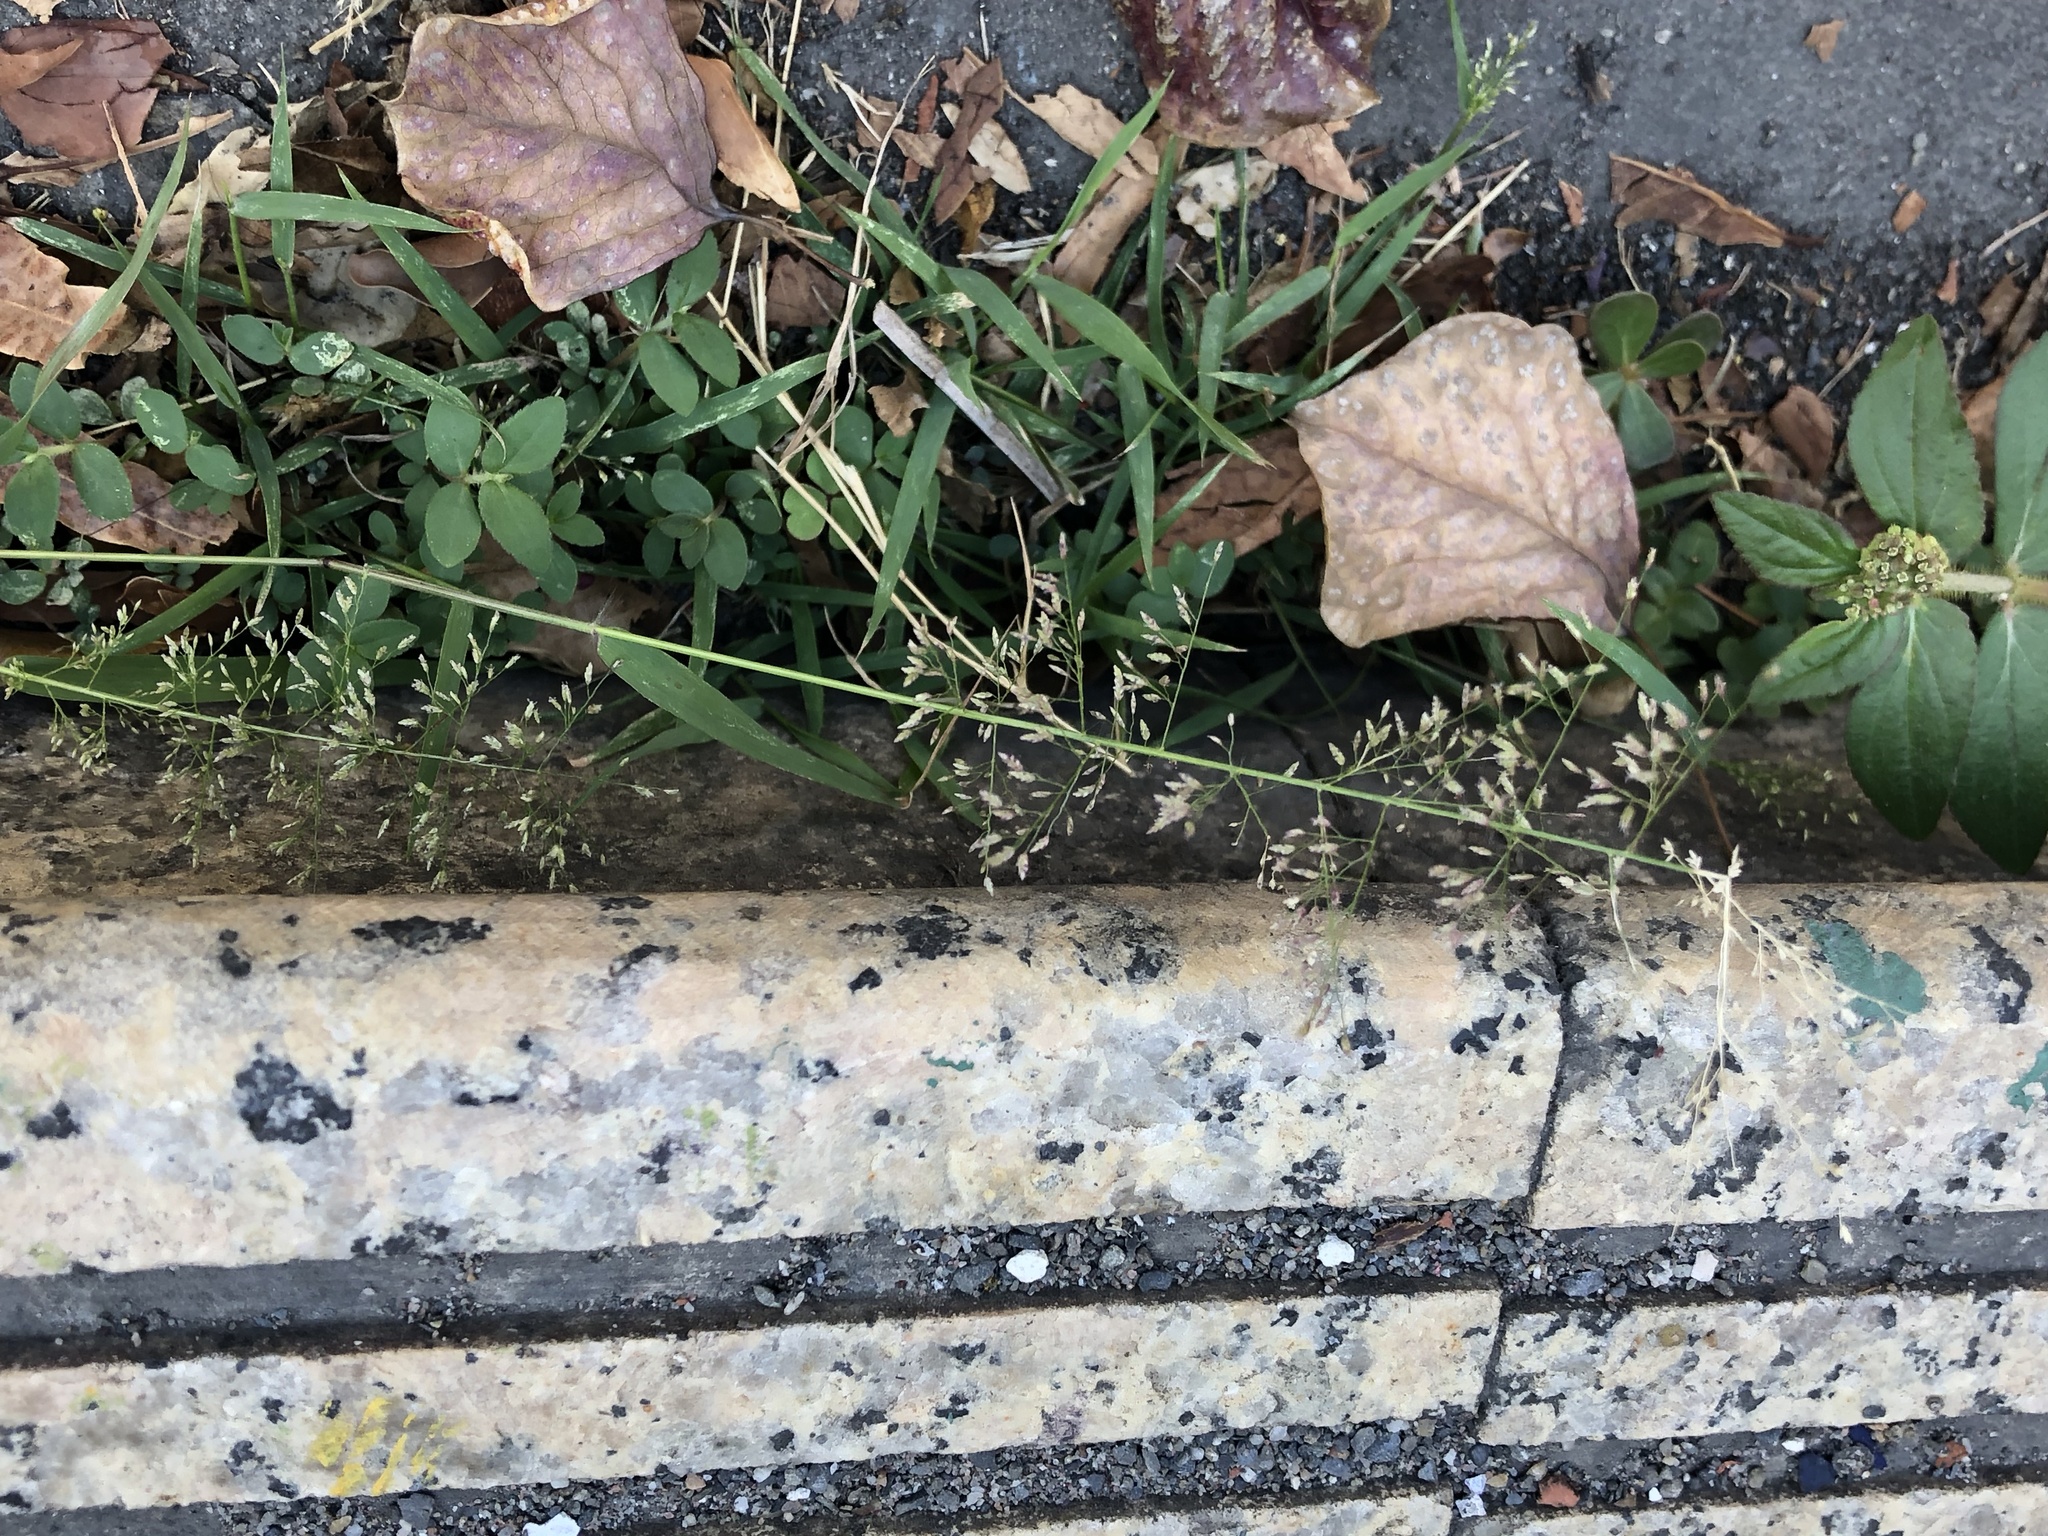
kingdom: Plantae
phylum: Tracheophyta
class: Liliopsida
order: Poales
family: Poaceae
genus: Eragrostis
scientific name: Eragrostis tenella
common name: Japanese lovegrass
